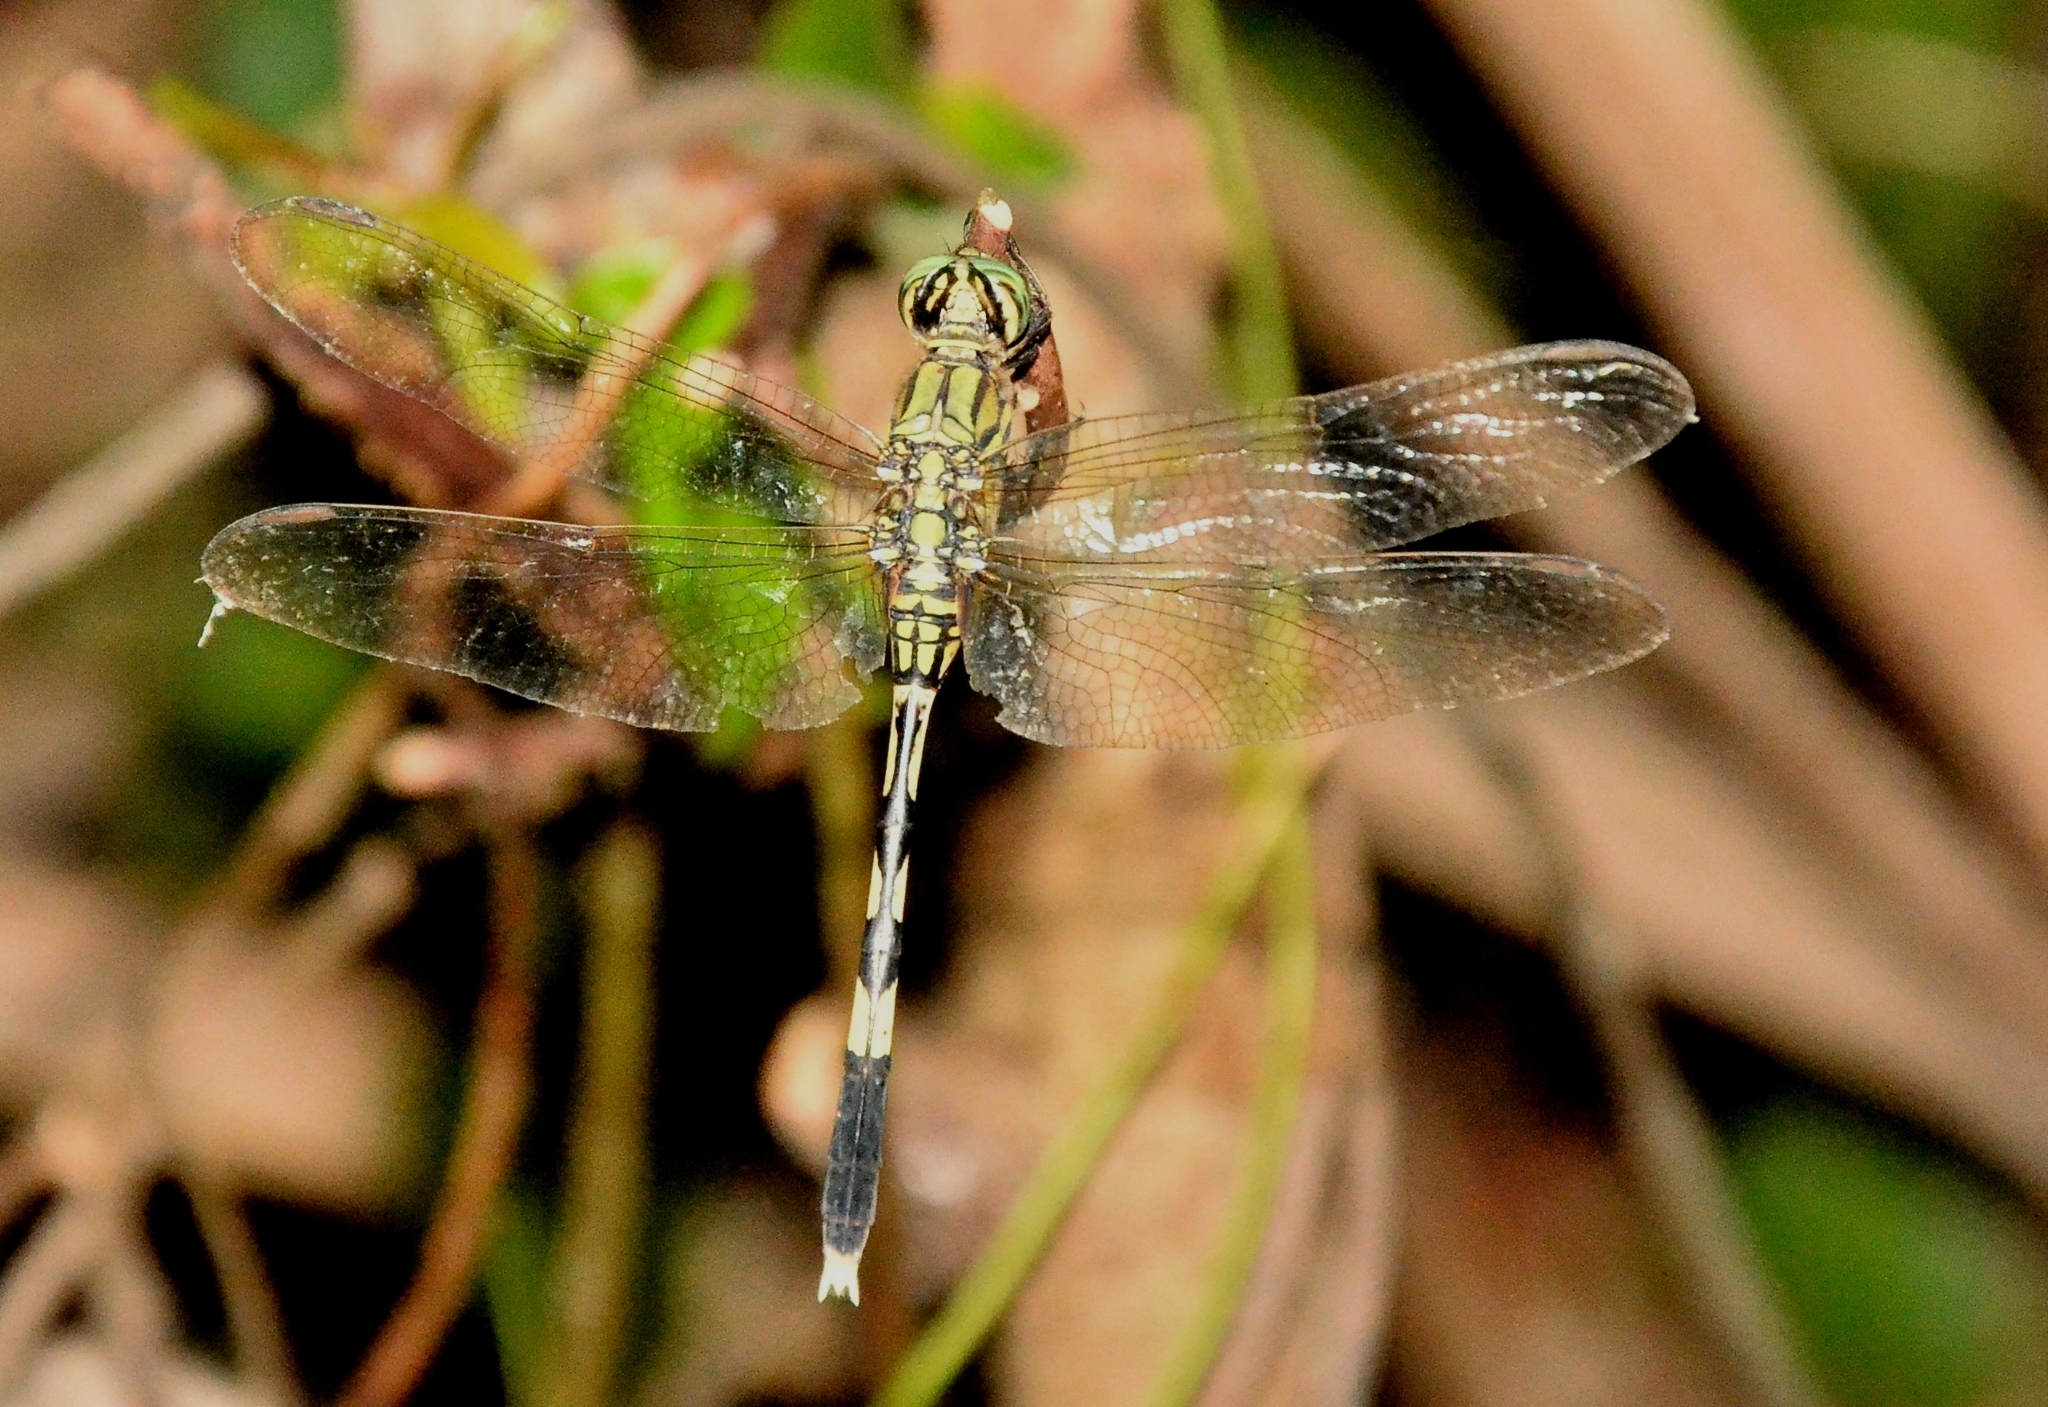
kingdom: Animalia
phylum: Arthropoda
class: Insecta
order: Odonata
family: Libellulidae
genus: Orthetrum
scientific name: Orthetrum sabina
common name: Slender skimmer
